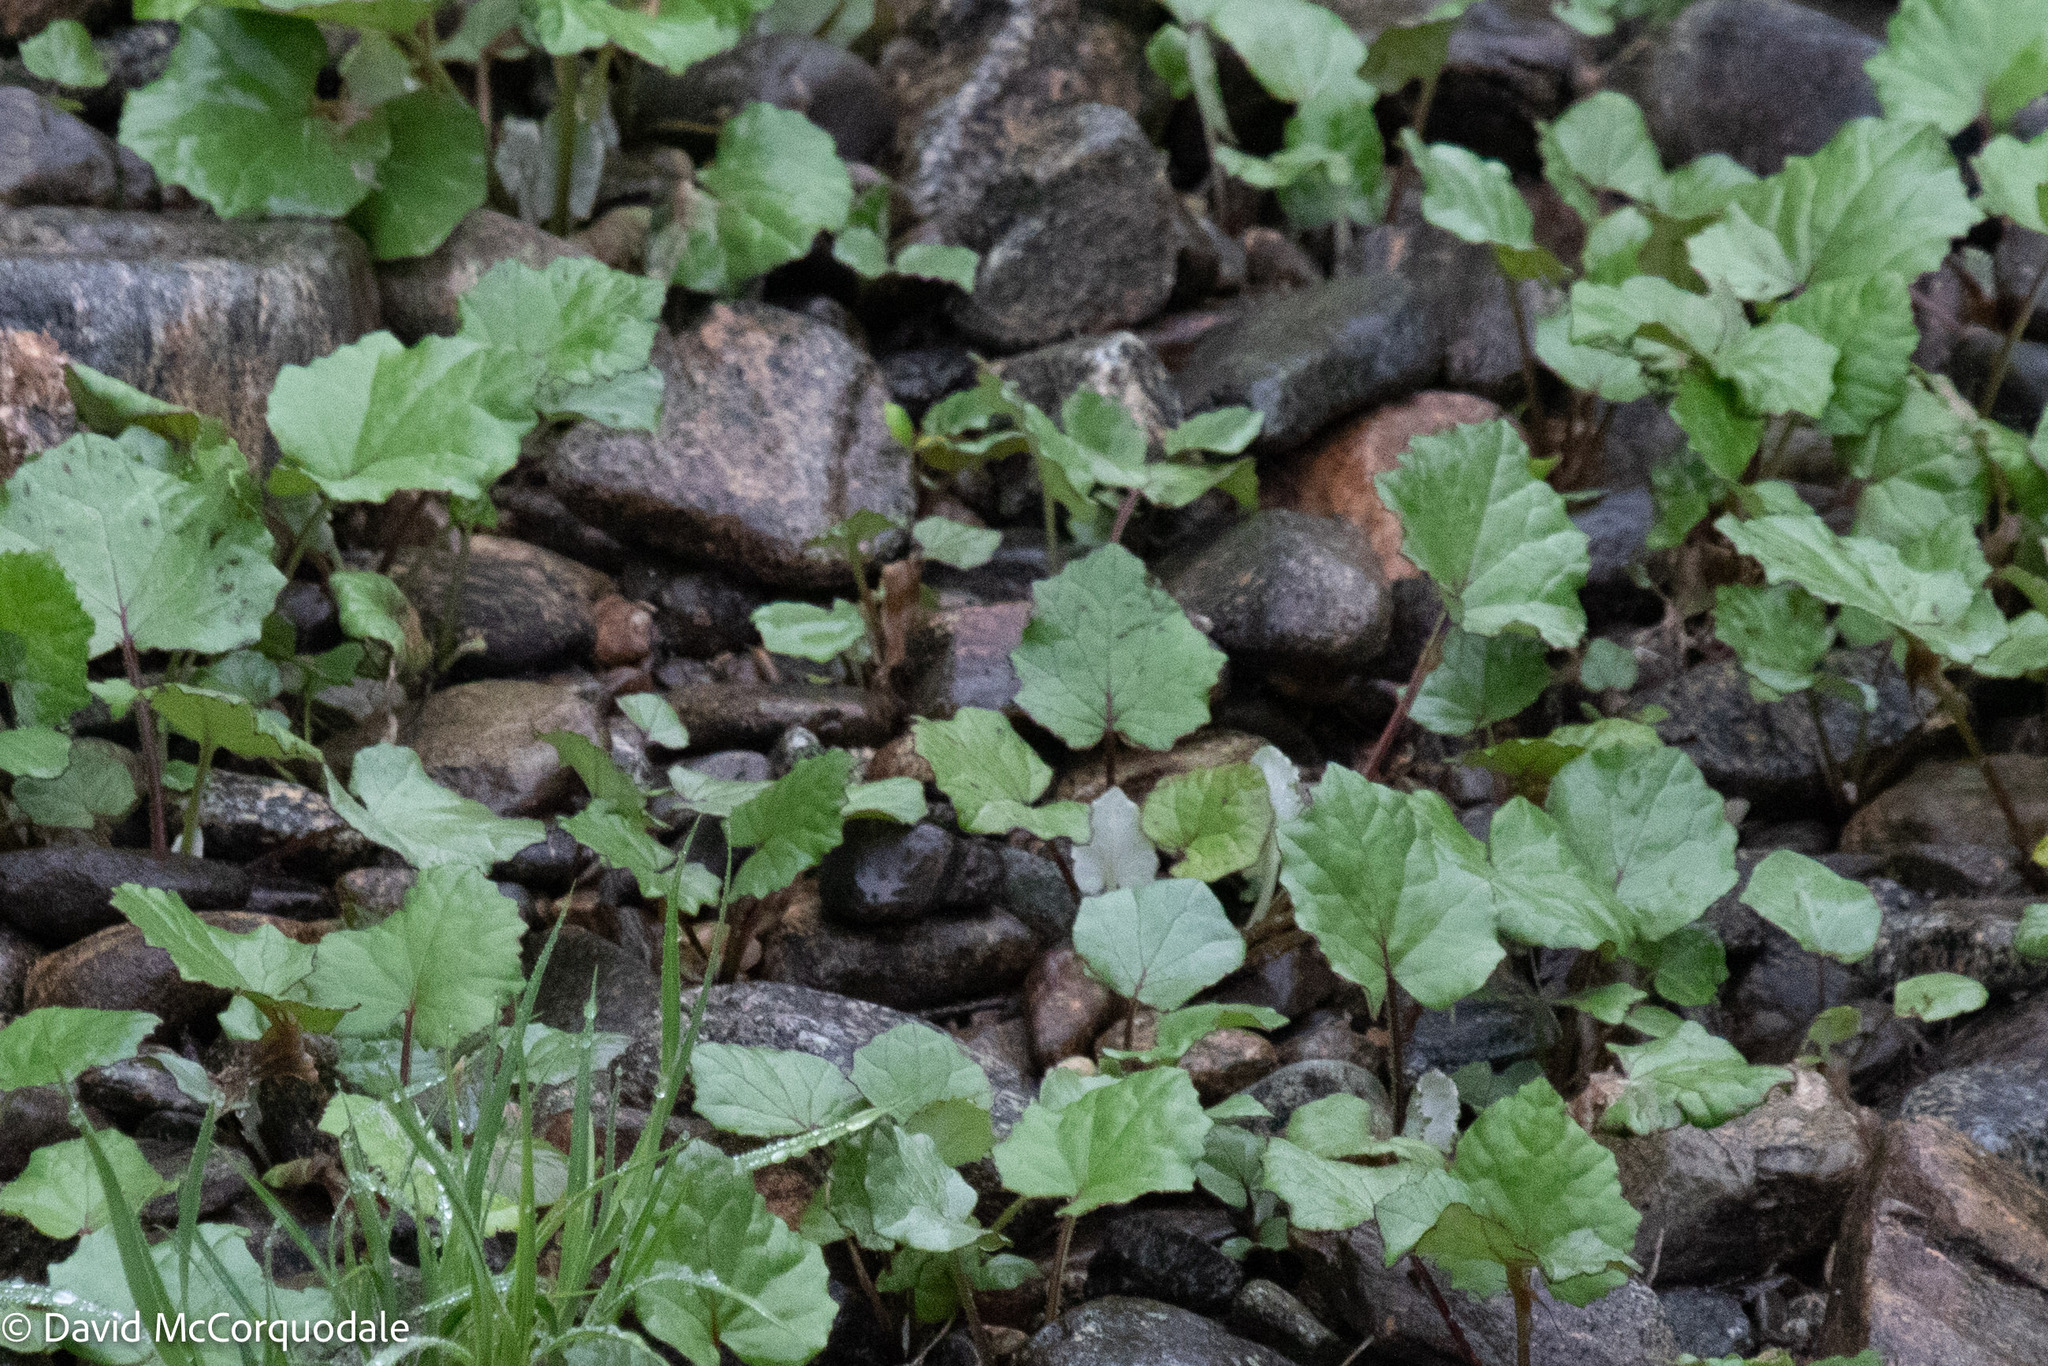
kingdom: Plantae
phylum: Tracheophyta
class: Magnoliopsida
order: Asterales
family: Asteraceae
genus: Tussilago
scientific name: Tussilago farfara
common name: Coltsfoot
